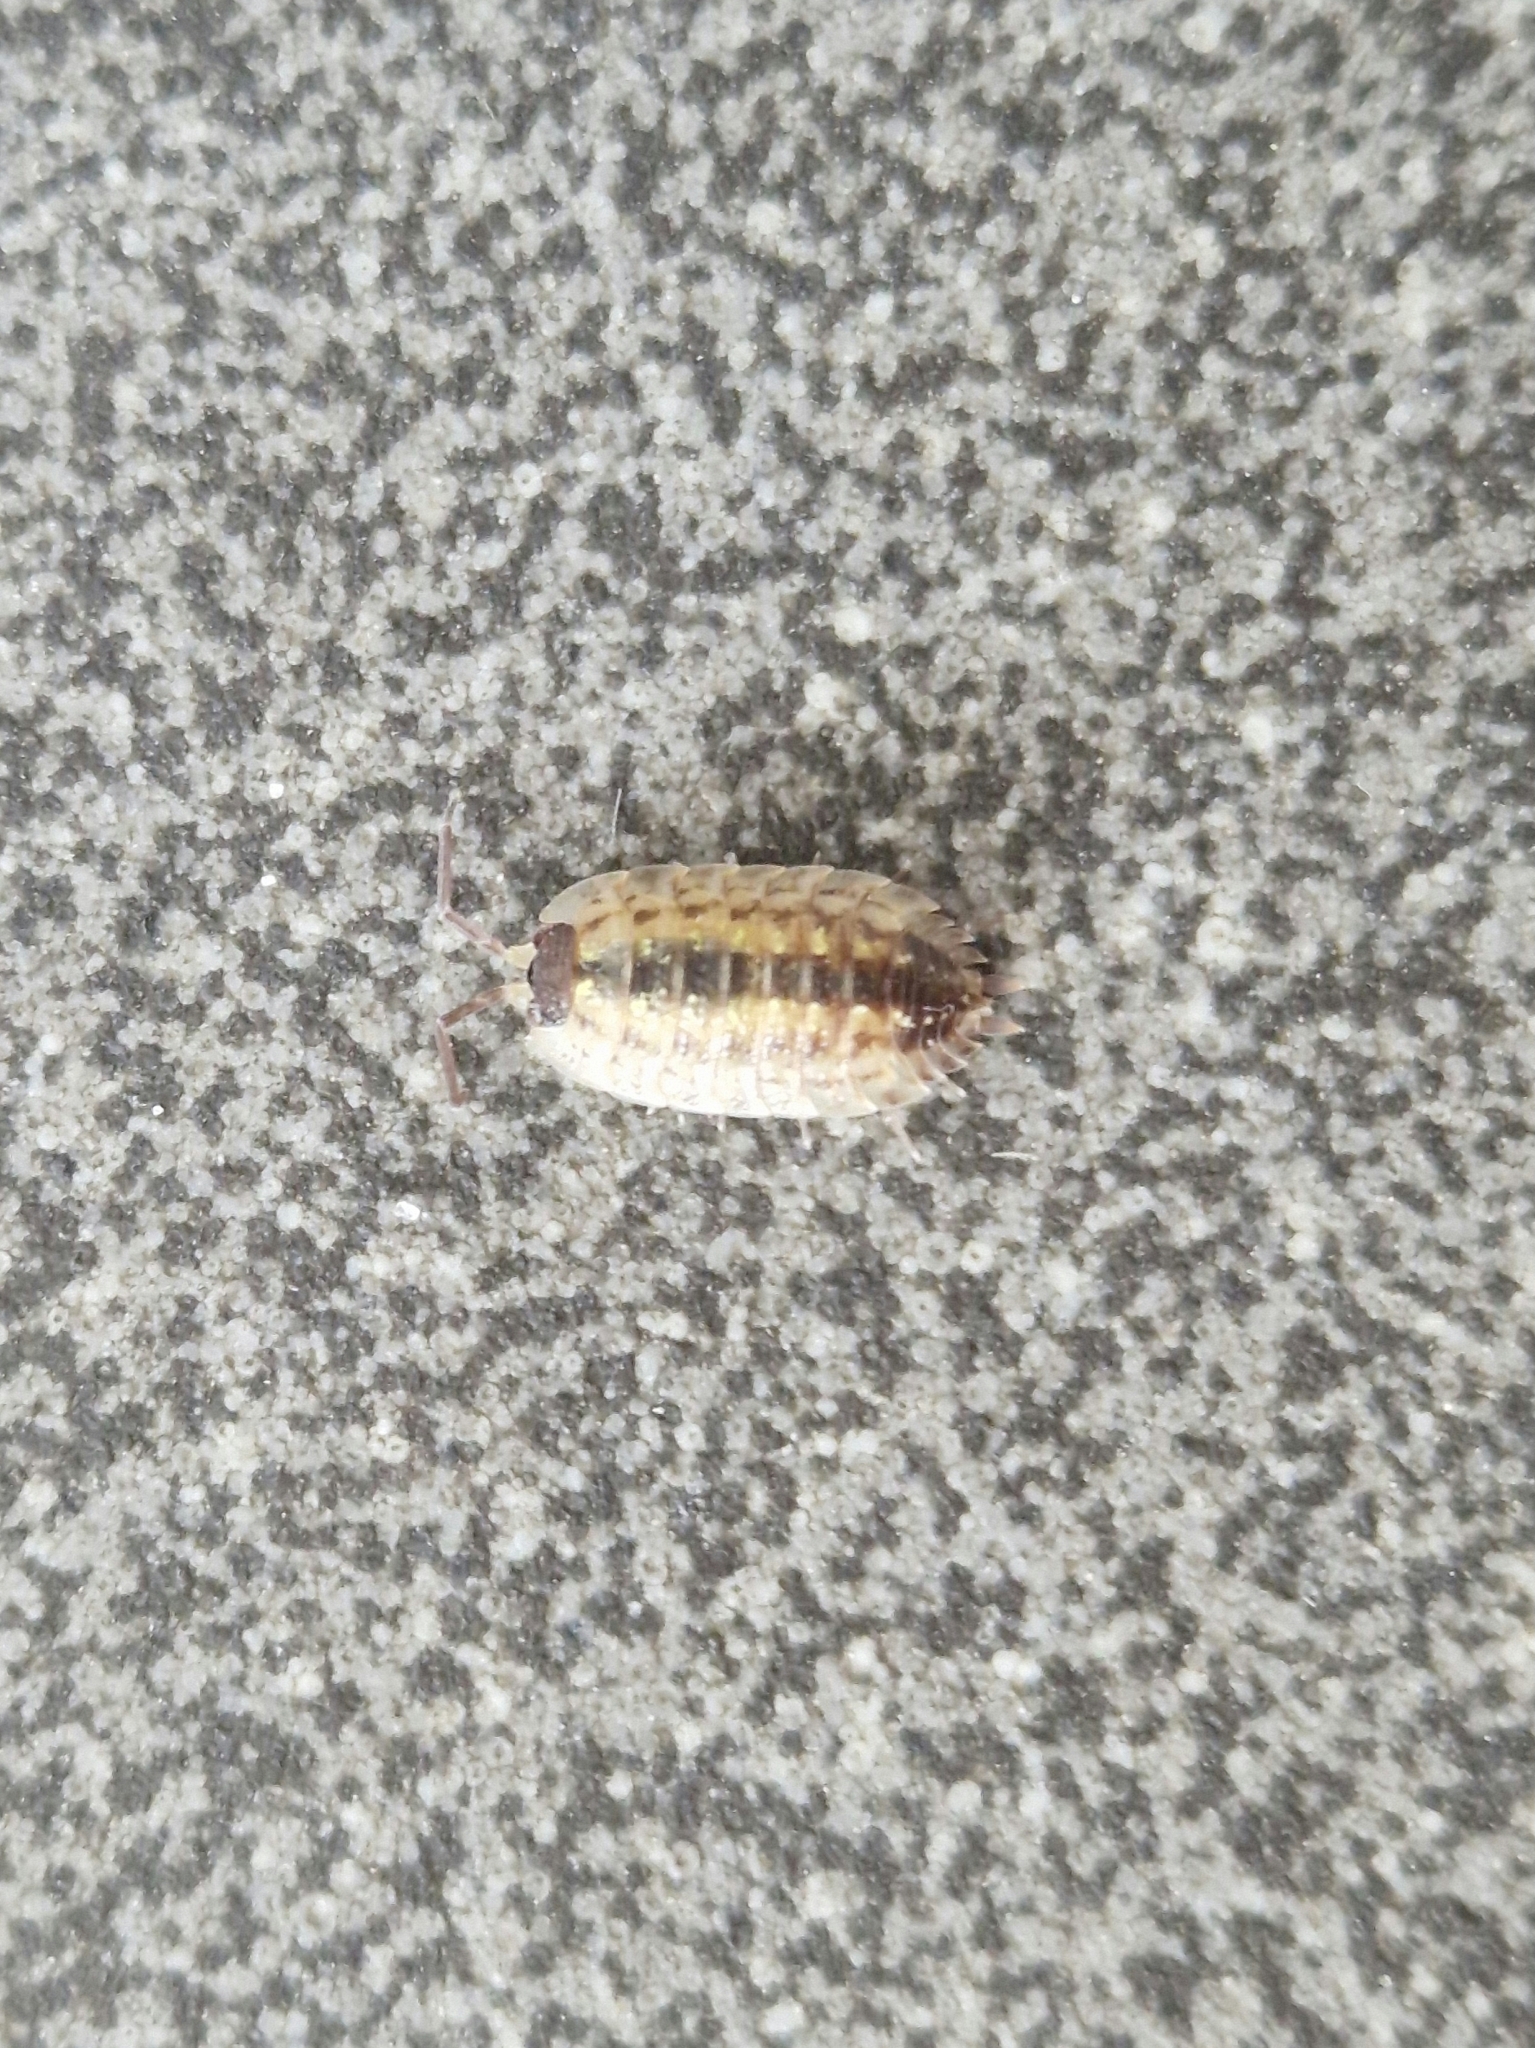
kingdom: Animalia
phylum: Arthropoda
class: Malacostraca
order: Isopoda
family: Porcellionidae
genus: Porcellio
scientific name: Porcellio spinicornis
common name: Painted woodlouse
